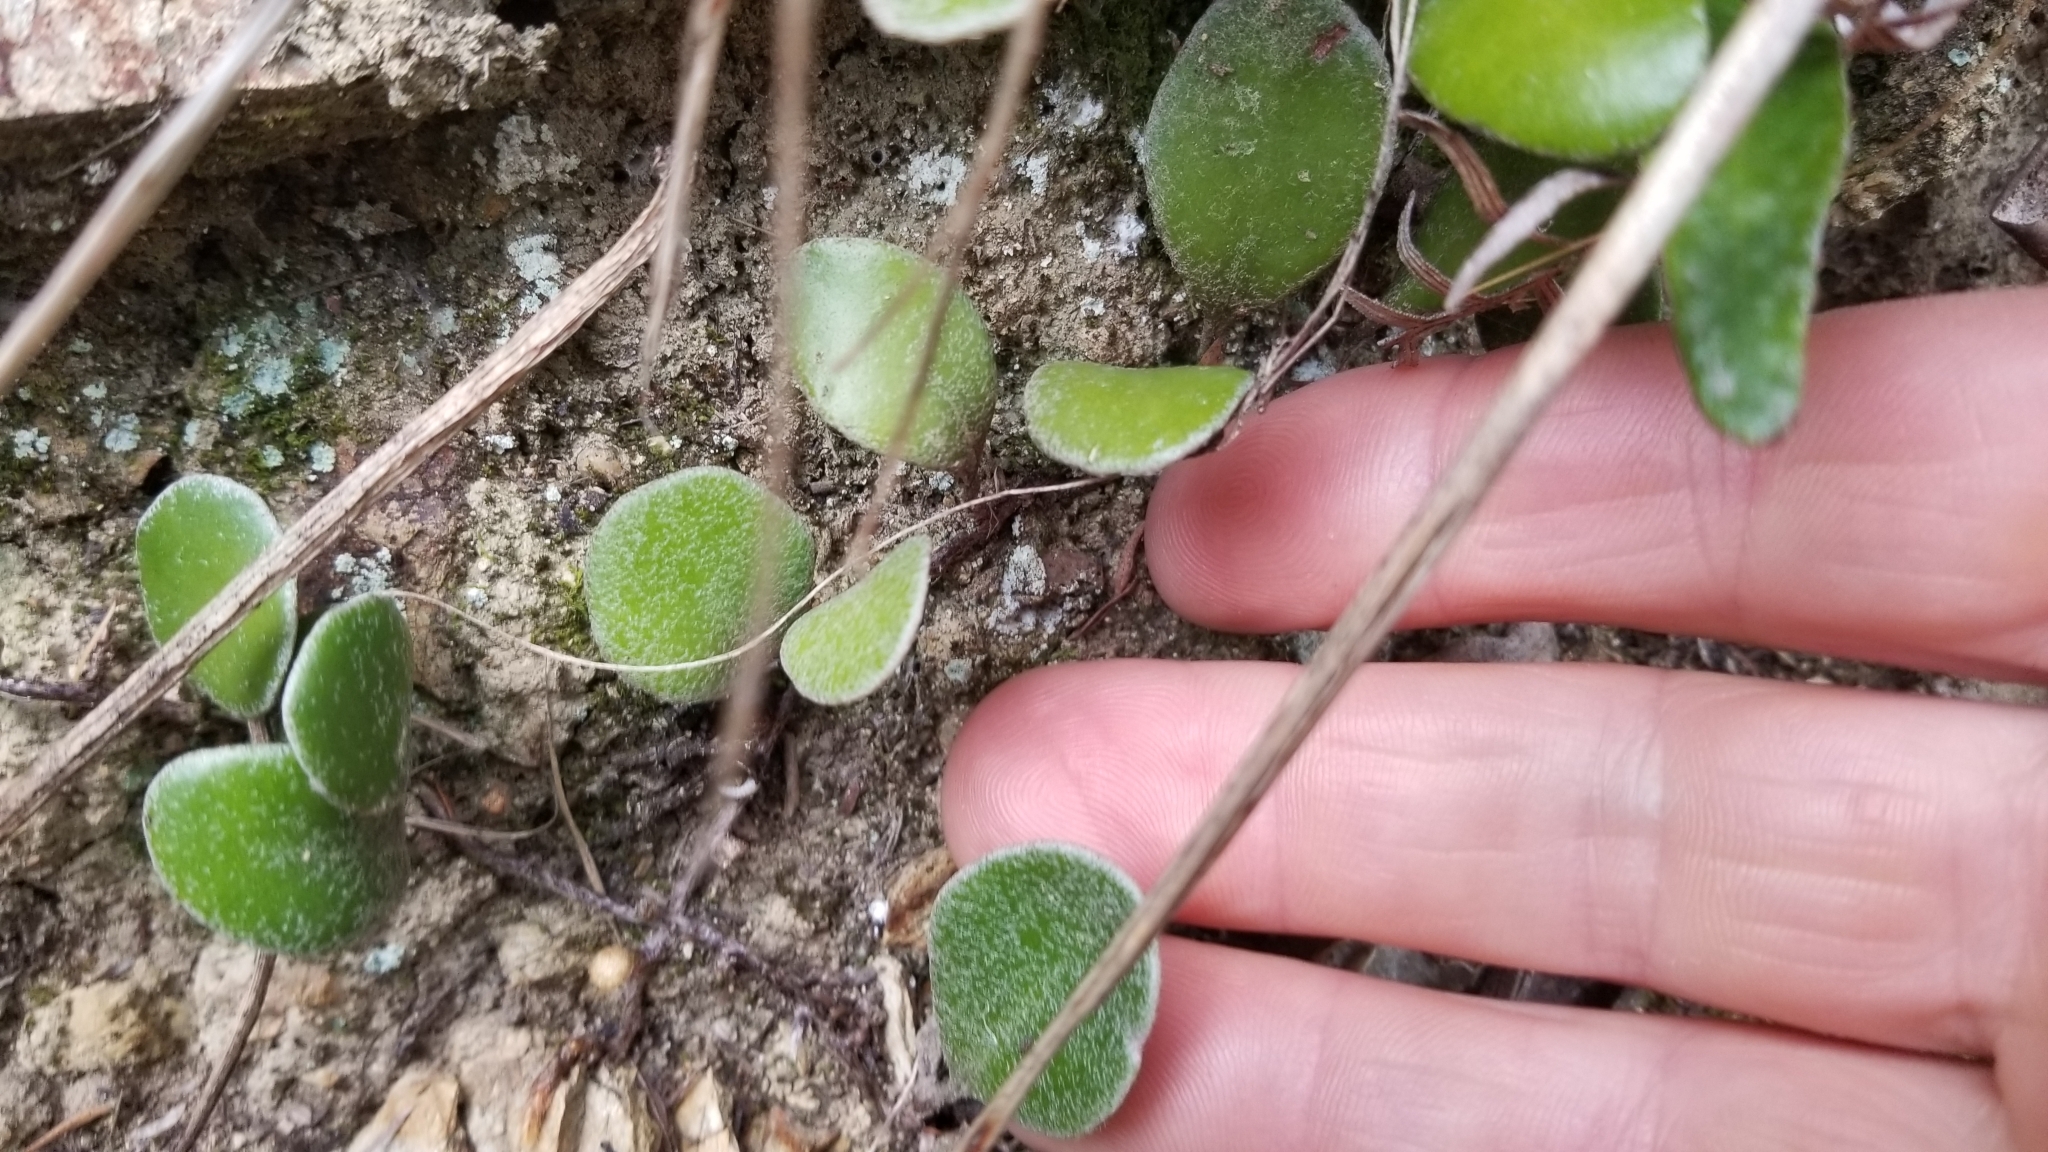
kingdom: Plantae
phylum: Tracheophyta
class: Polypodiopsida
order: Polypodiales
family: Polypodiaceae
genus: Pyrrosia
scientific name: Pyrrosia eleagnifolia
